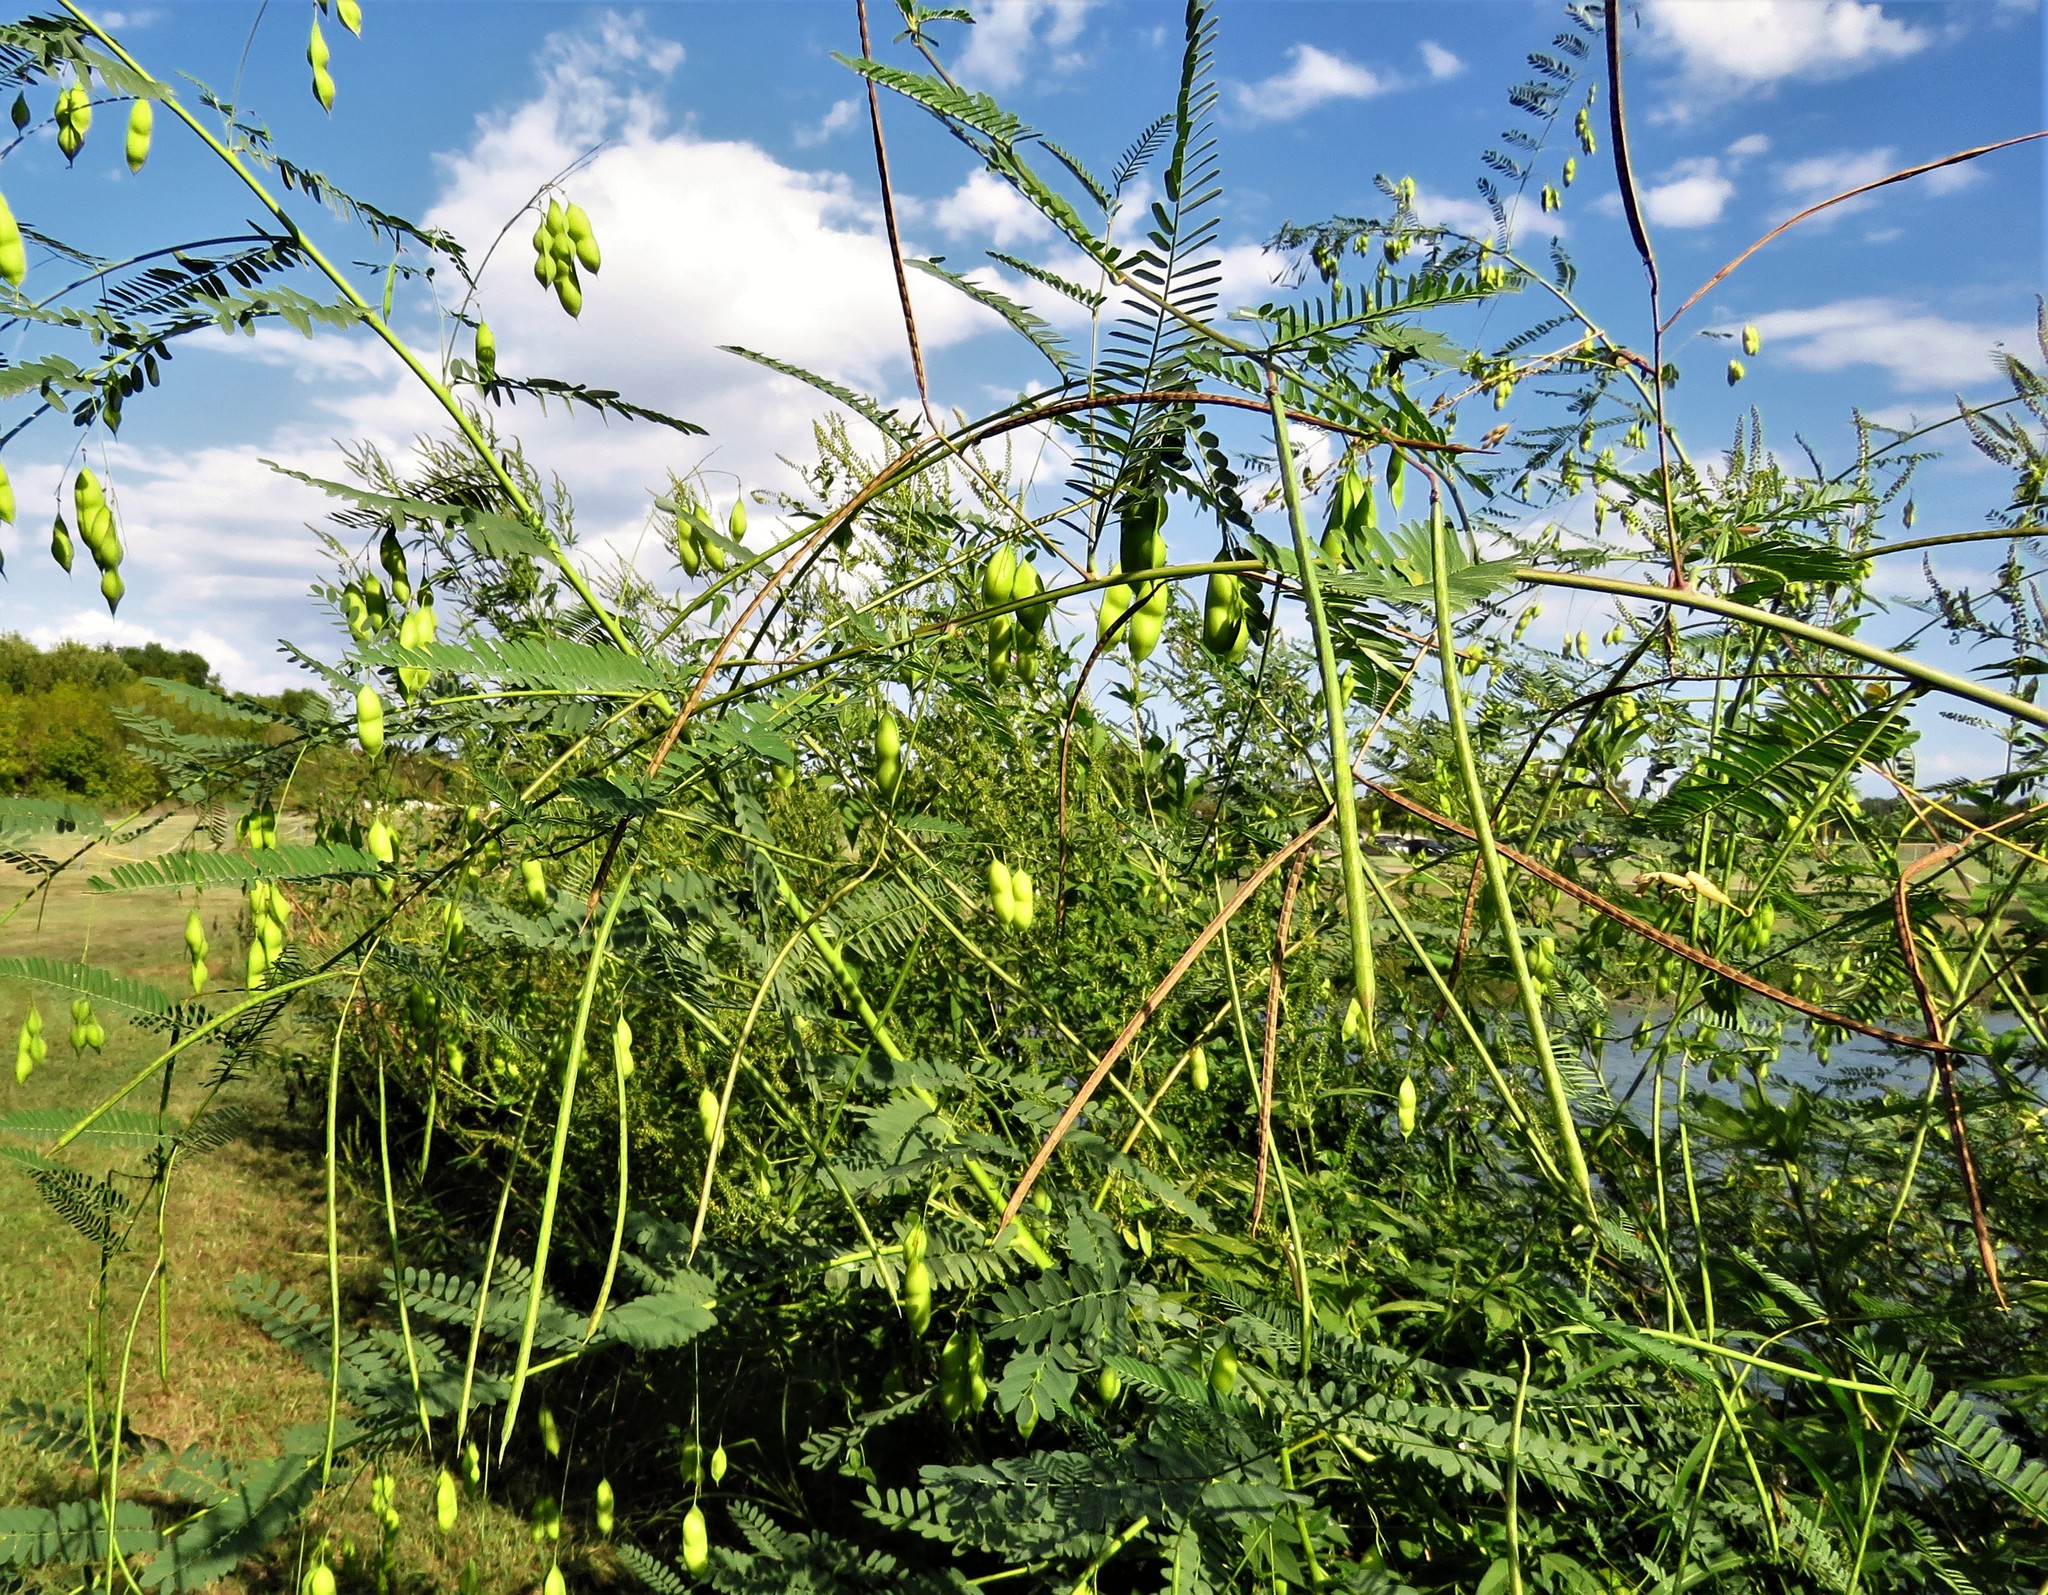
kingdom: Plantae
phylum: Tracheophyta
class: Magnoliopsida
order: Fabales
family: Fabaceae
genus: Sesbania
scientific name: Sesbania herbacea
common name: Bigpod sesbania
